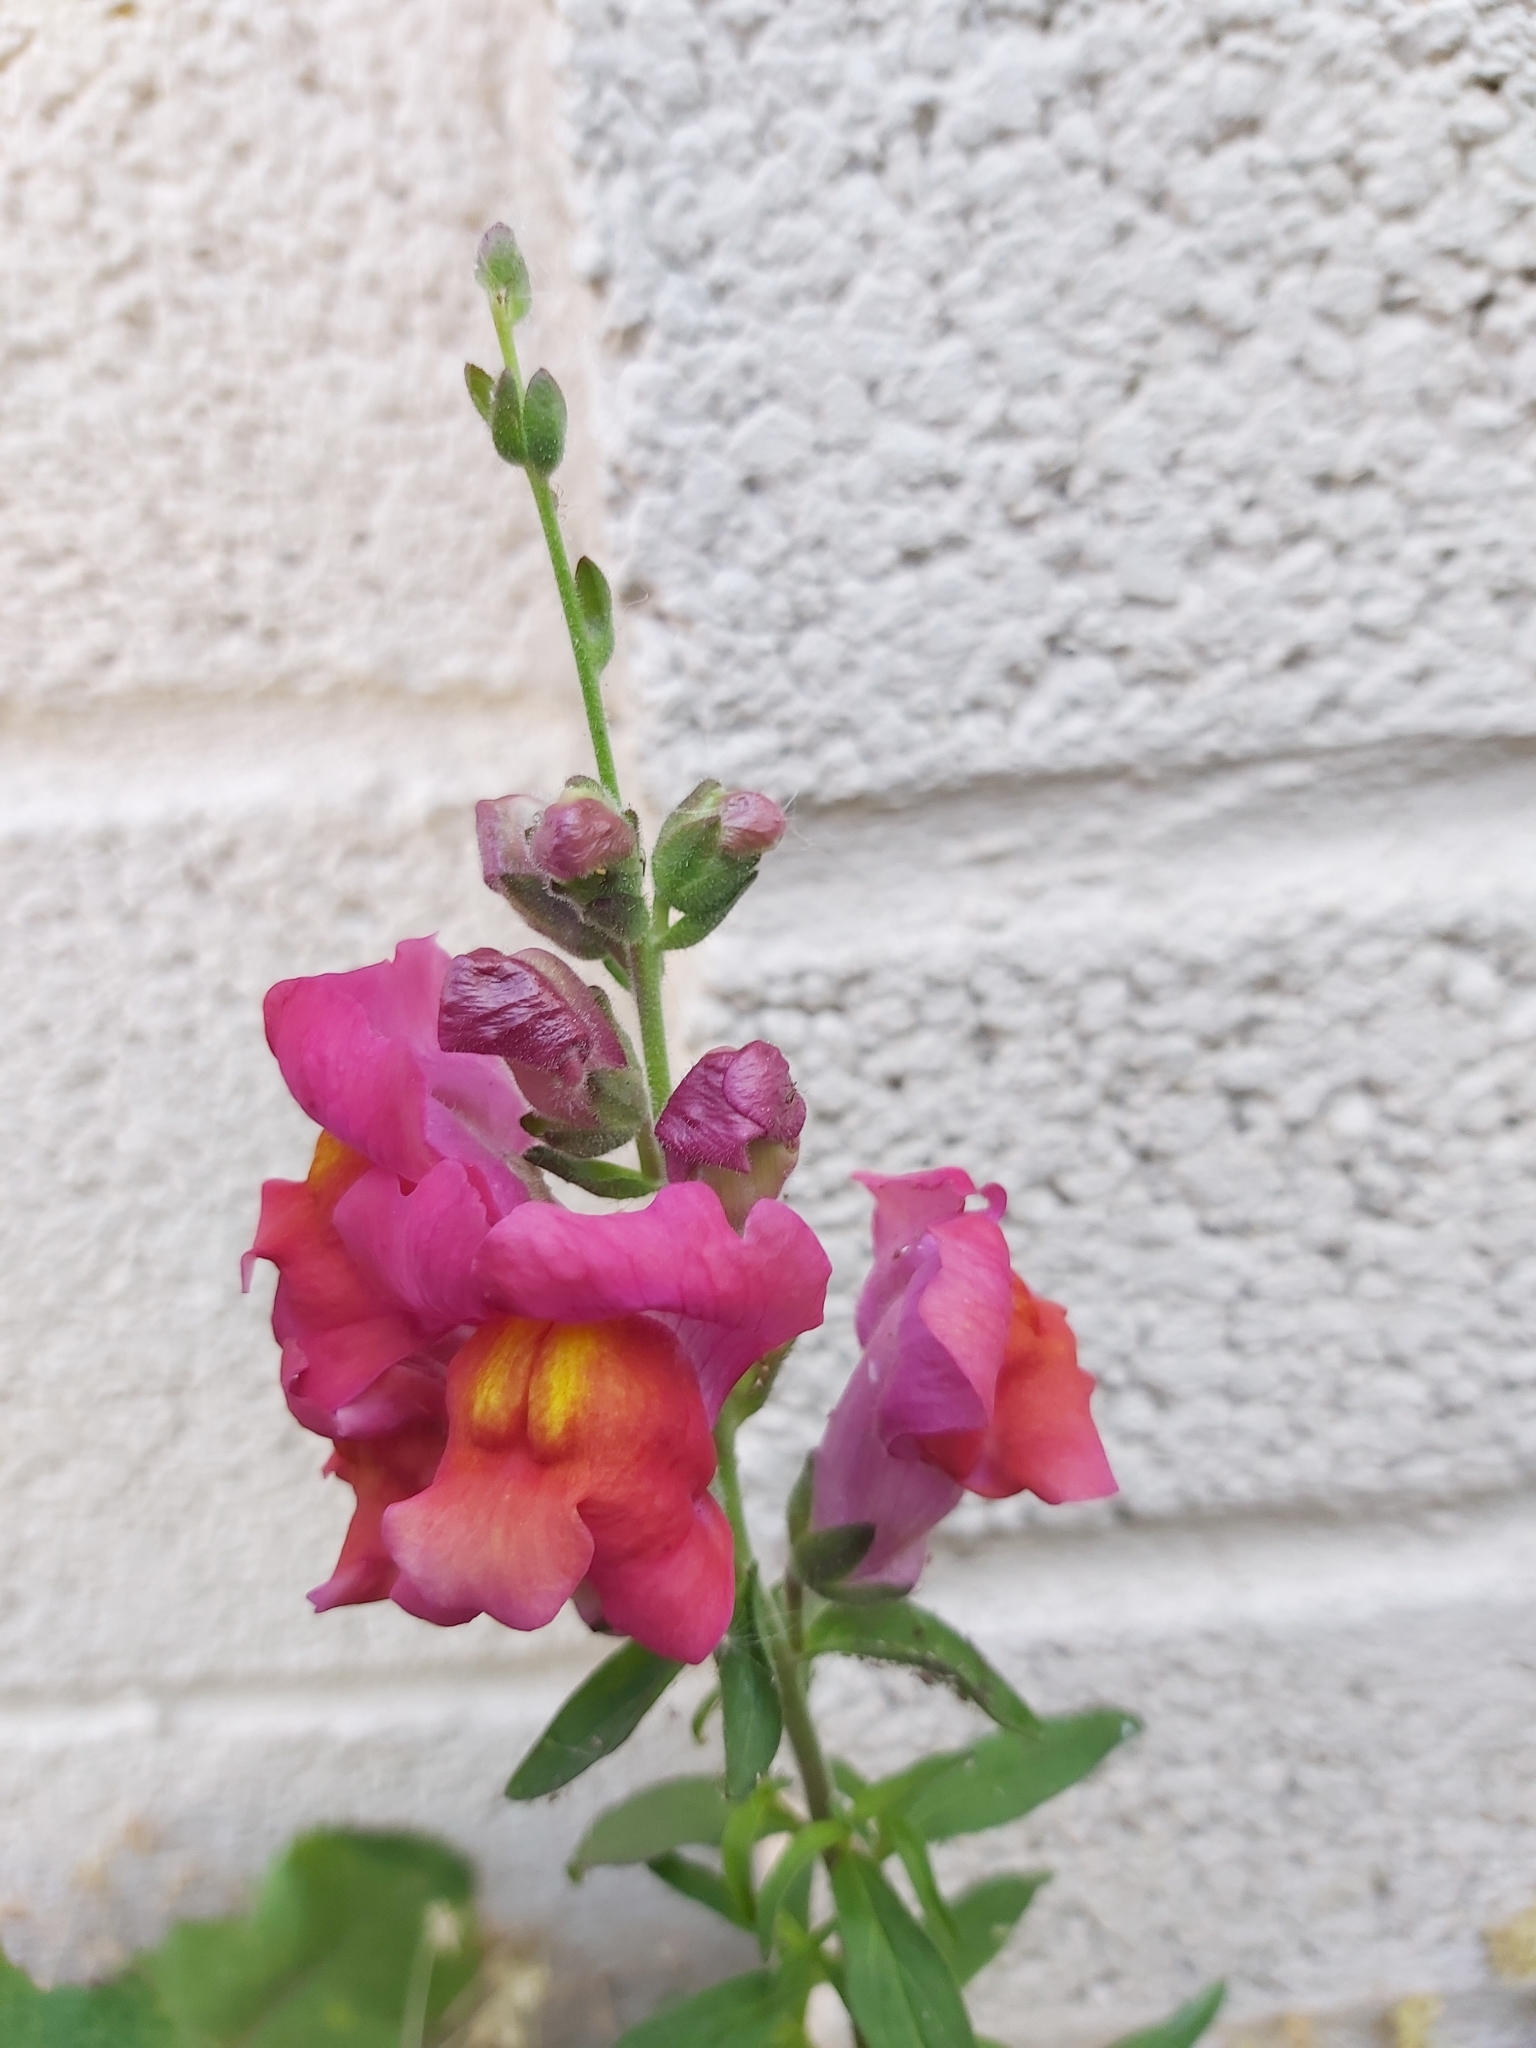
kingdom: Plantae
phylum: Tracheophyta
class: Magnoliopsida
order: Lamiales
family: Plantaginaceae
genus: Antirrhinum
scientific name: Antirrhinum majus
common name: Snapdragon
